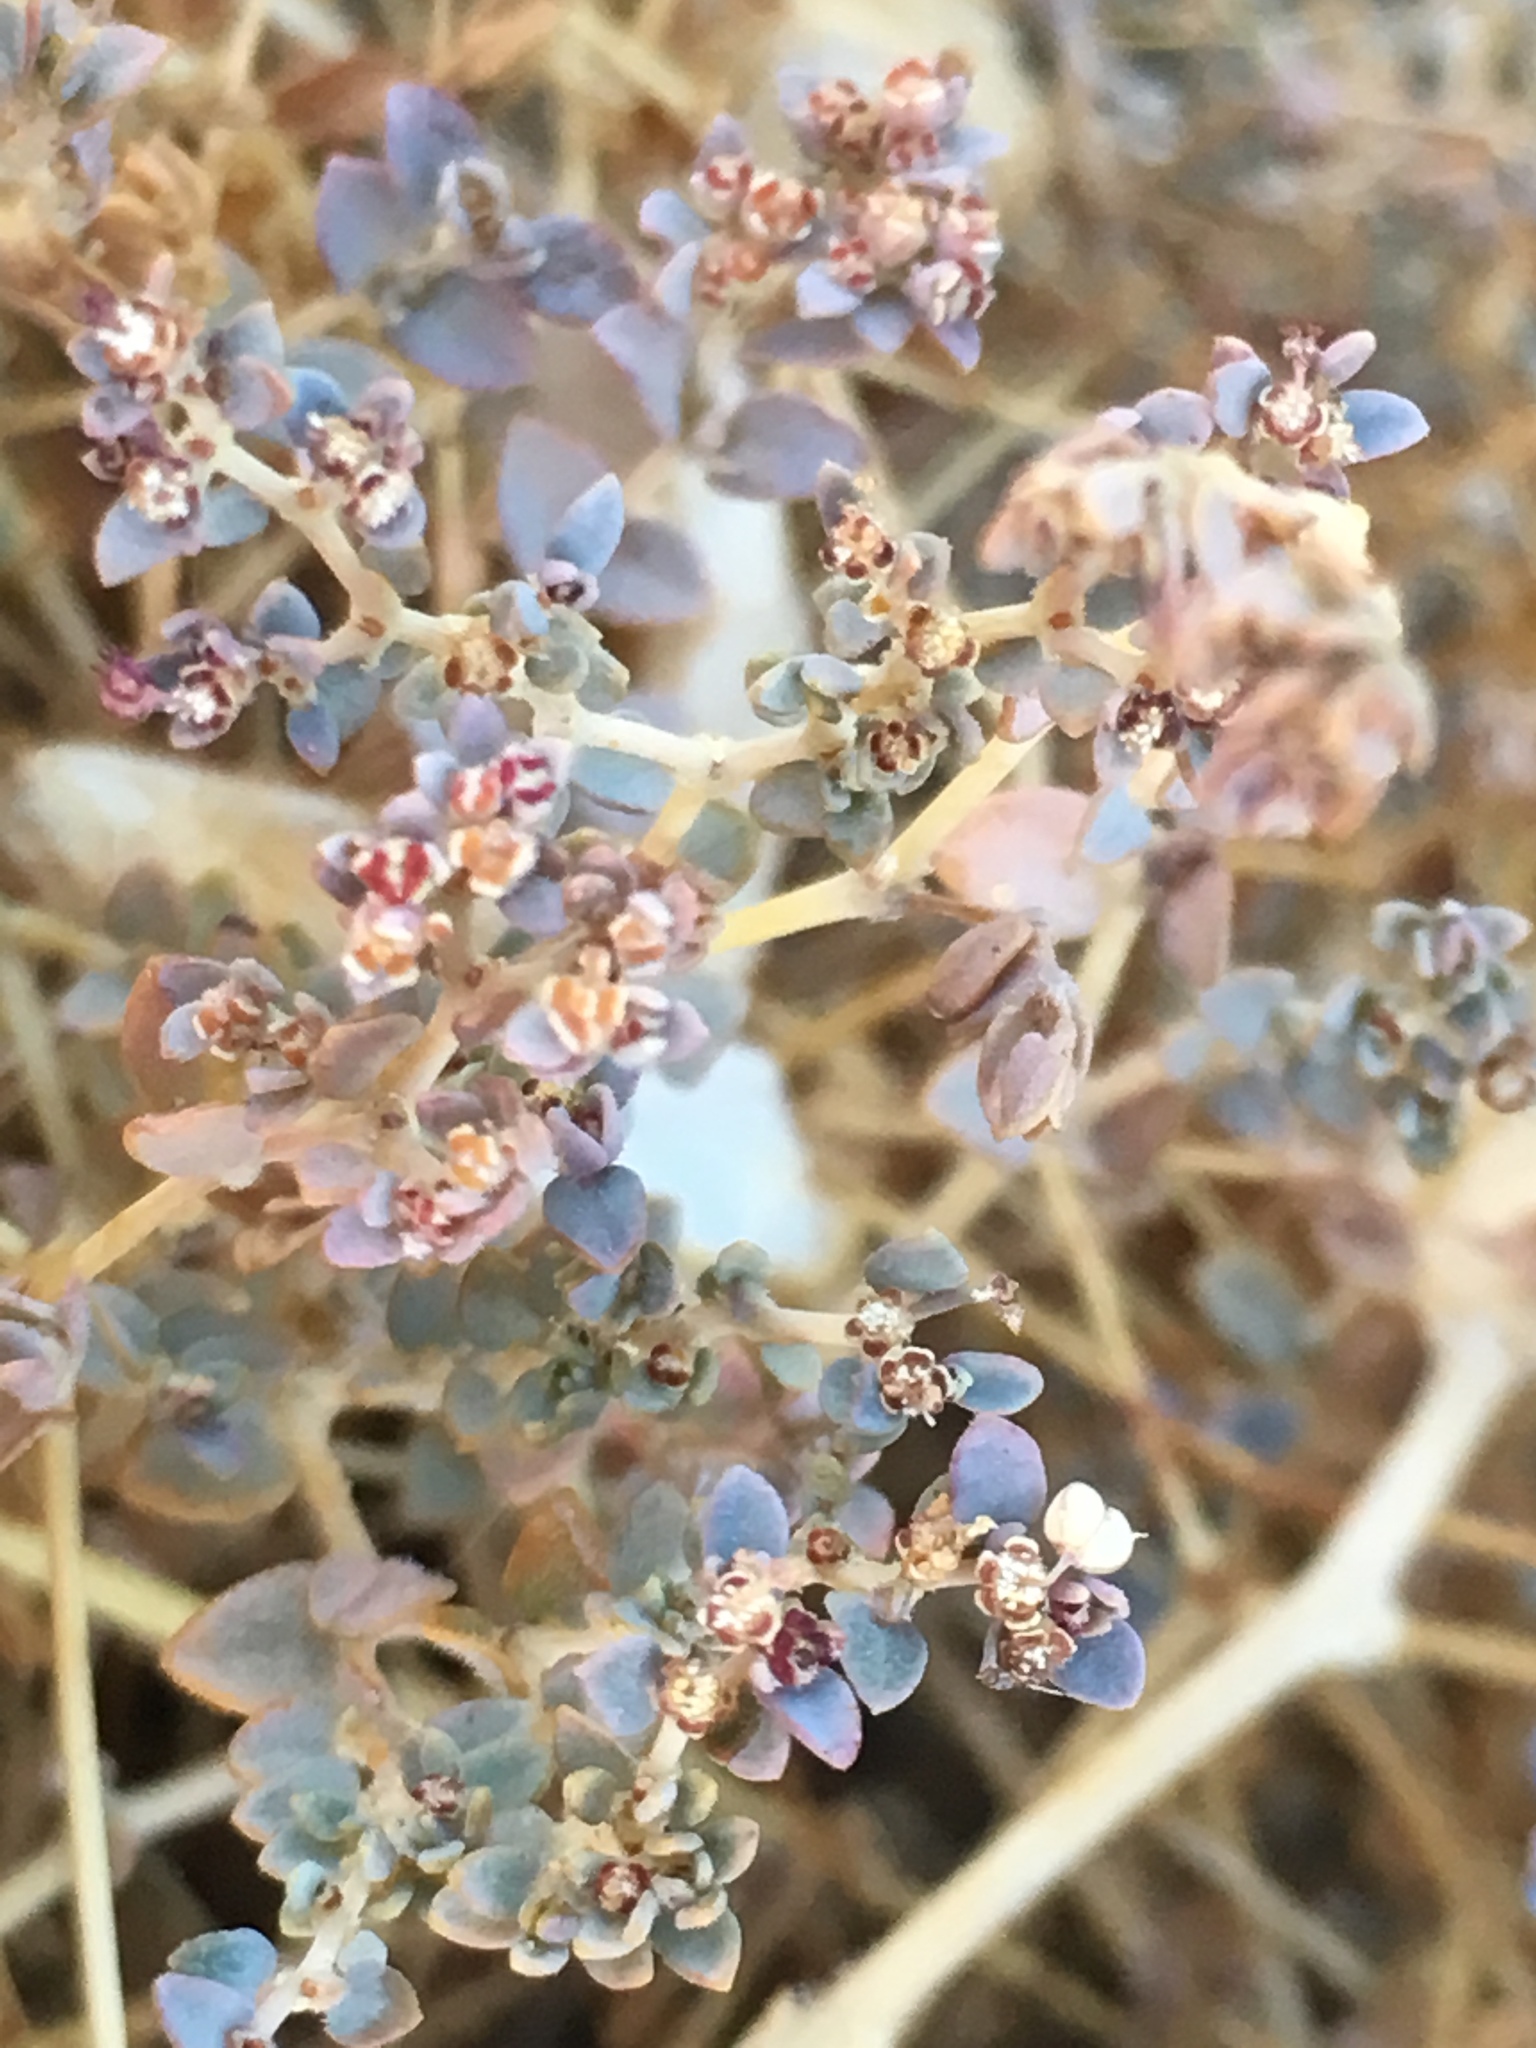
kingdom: Plantae
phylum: Tracheophyta
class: Magnoliopsida
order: Malpighiales
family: Euphorbiaceae
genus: Euphorbia
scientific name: Euphorbia polycarpa
